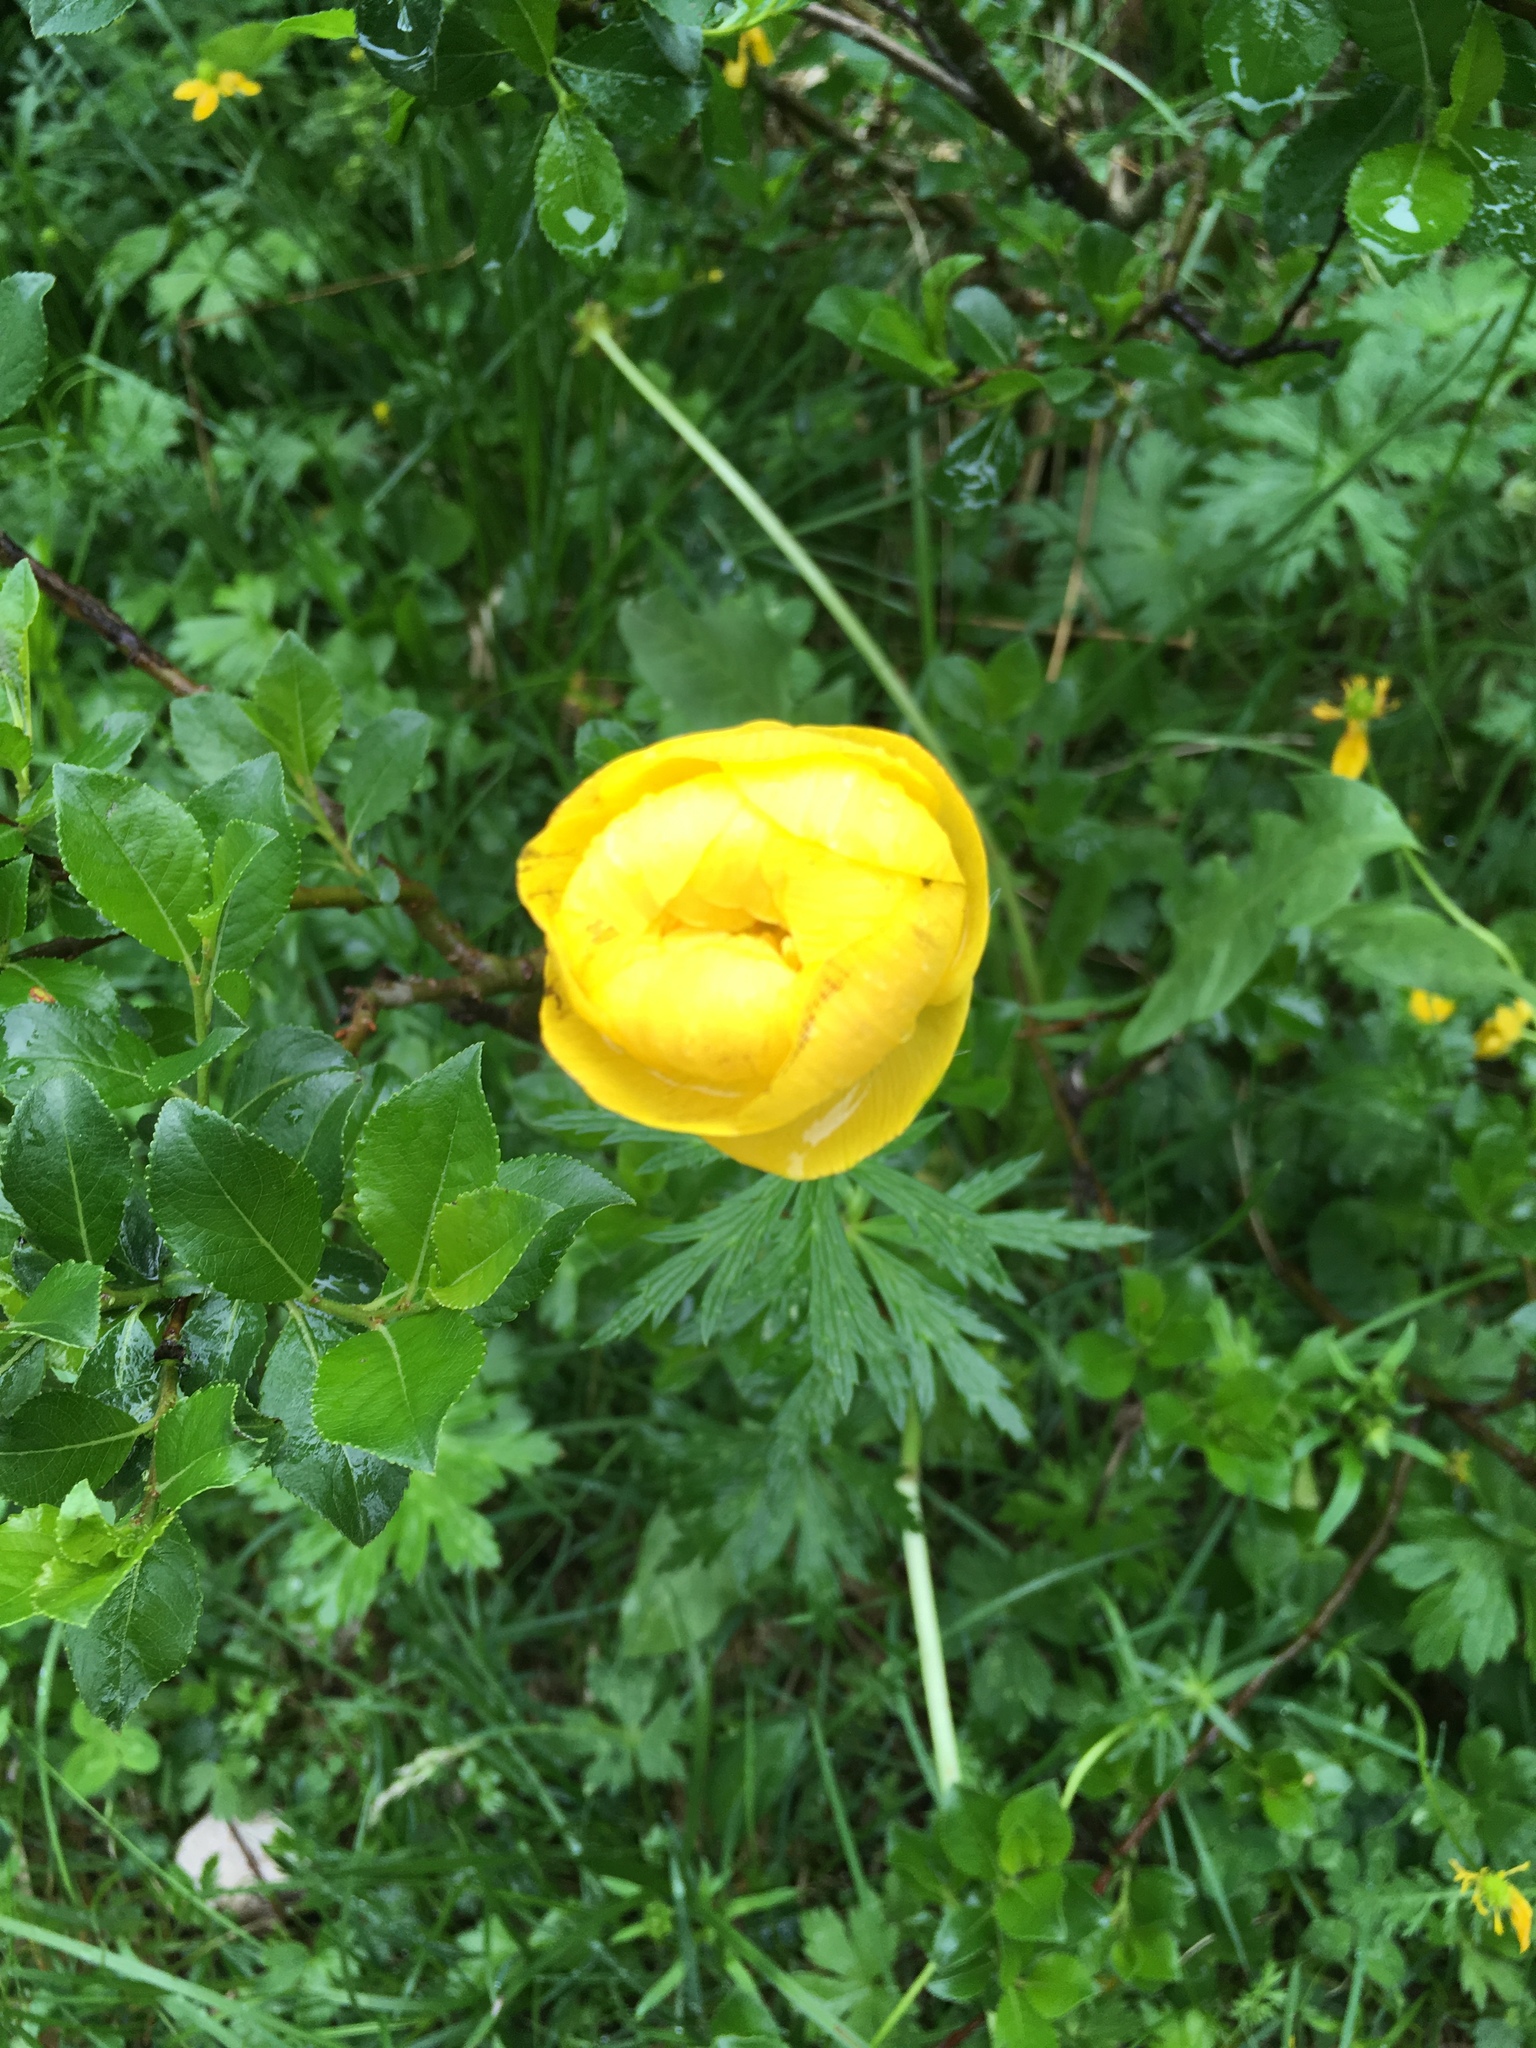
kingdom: Plantae
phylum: Tracheophyta
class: Magnoliopsida
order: Ranunculales
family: Ranunculaceae
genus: Trollius
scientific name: Trollius europaeus
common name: European globeflower
